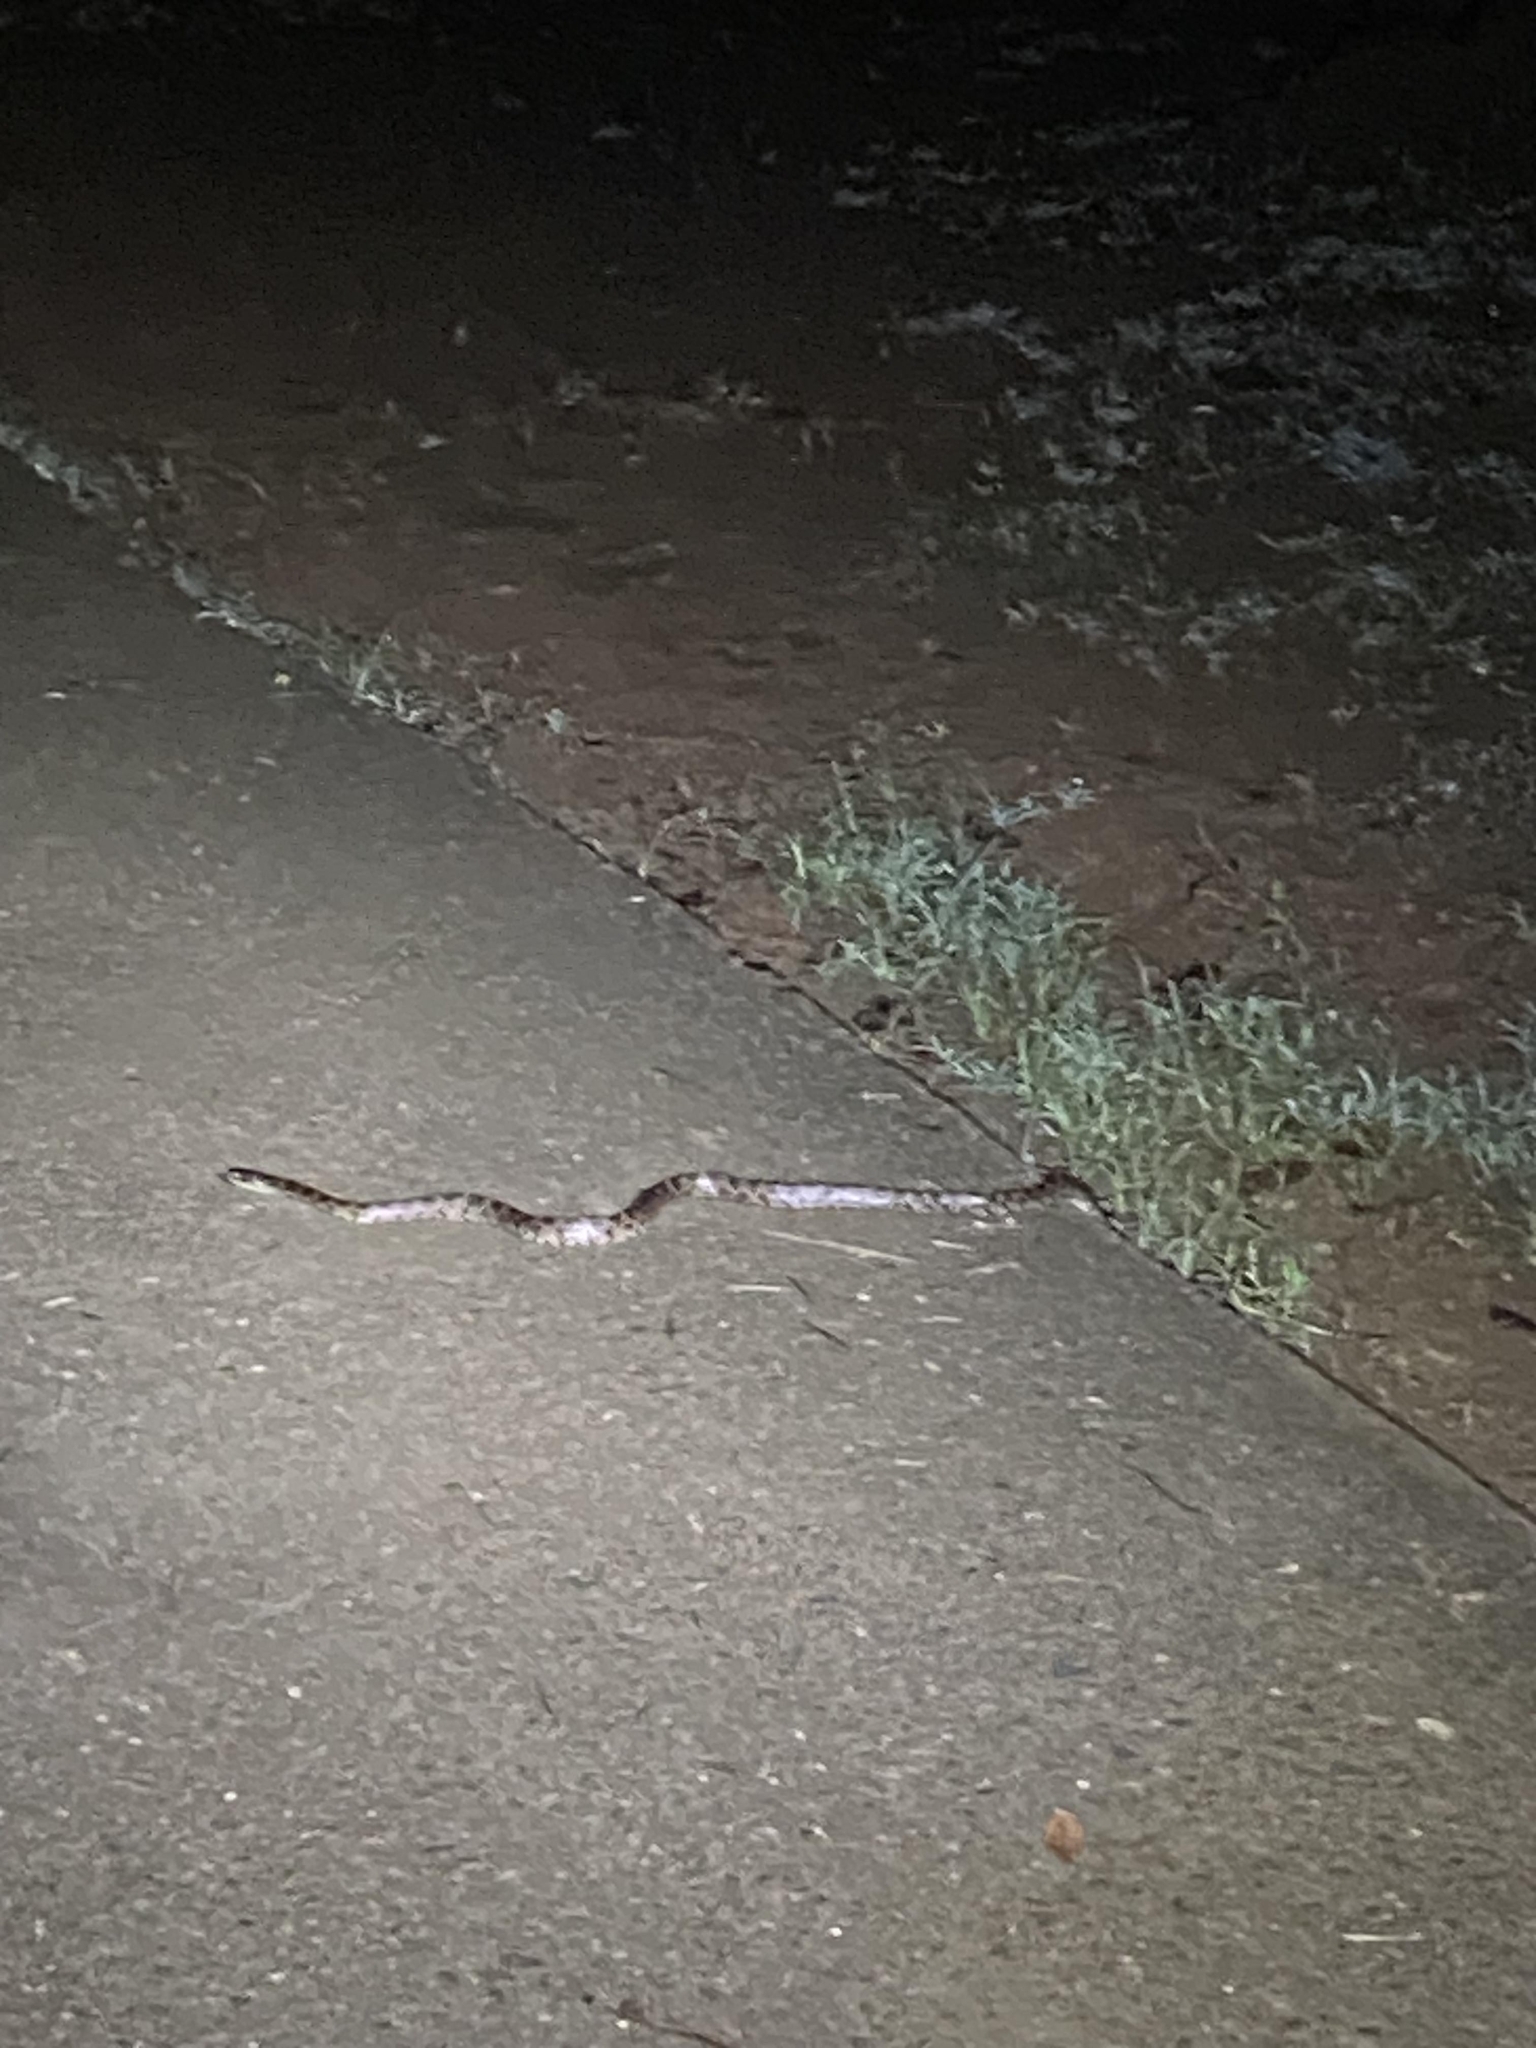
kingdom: Animalia
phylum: Chordata
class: Squamata
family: Colubridae
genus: Lycodon
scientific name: Lycodon rufozonatus
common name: Red-banded snake
